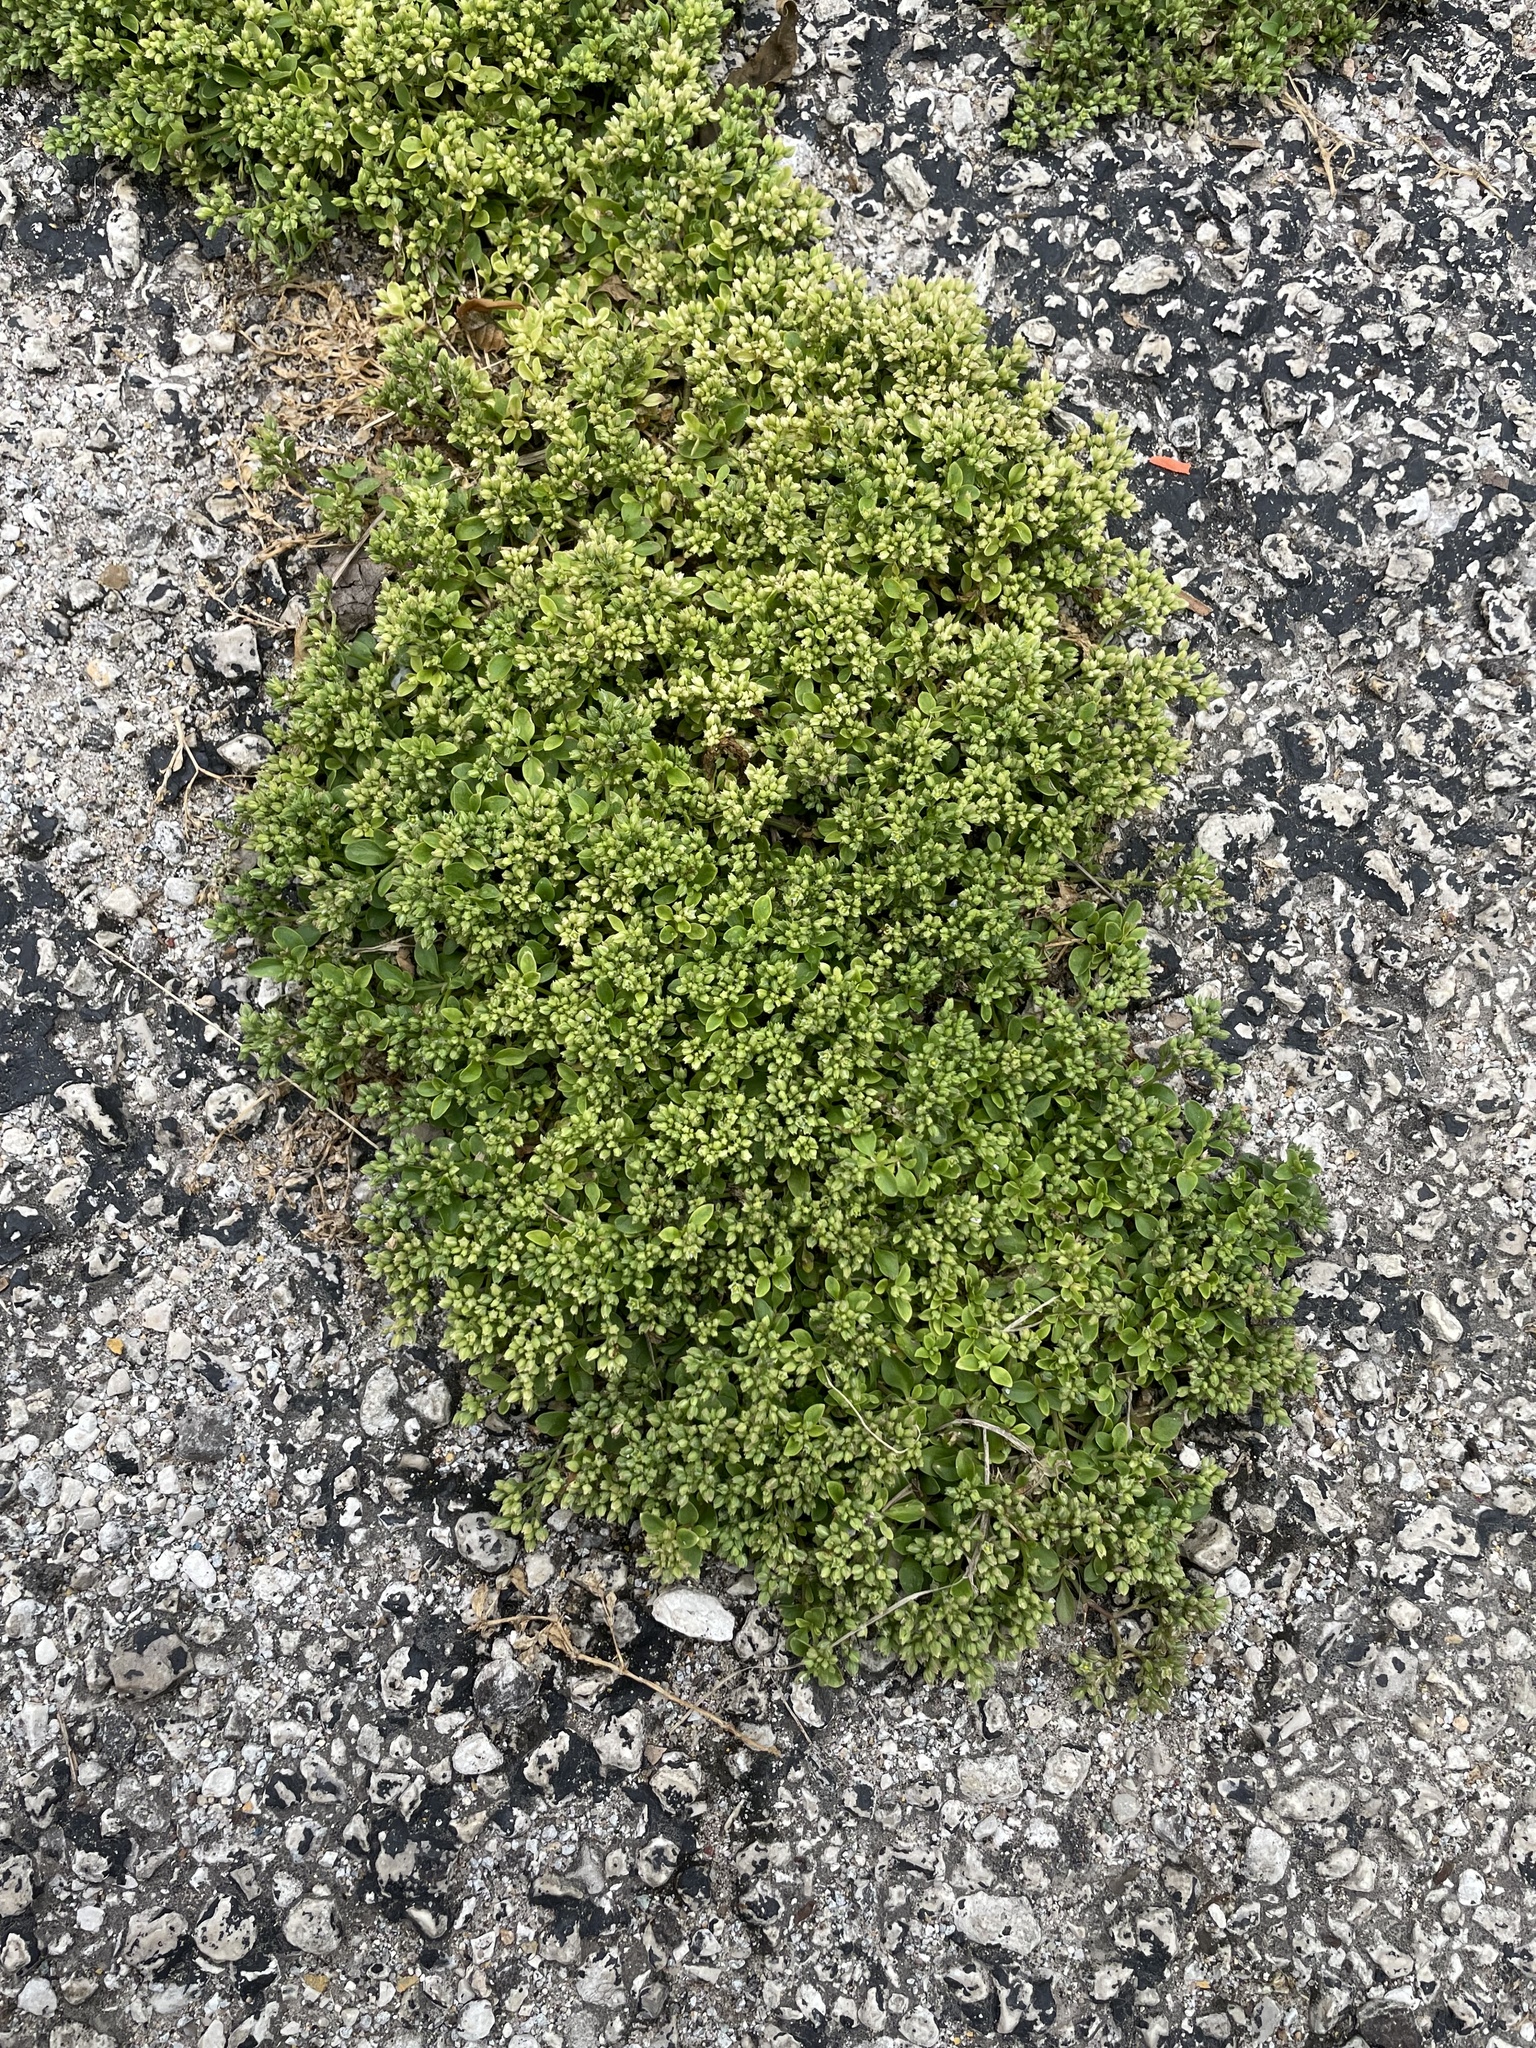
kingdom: Plantae
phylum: Tracheophyta
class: Magnoliopsida
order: Caryophyllales
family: Caryophyllaceae
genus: Polycarpon
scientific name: Polycarpon tetraphyllum
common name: Four-leaved all-seed
